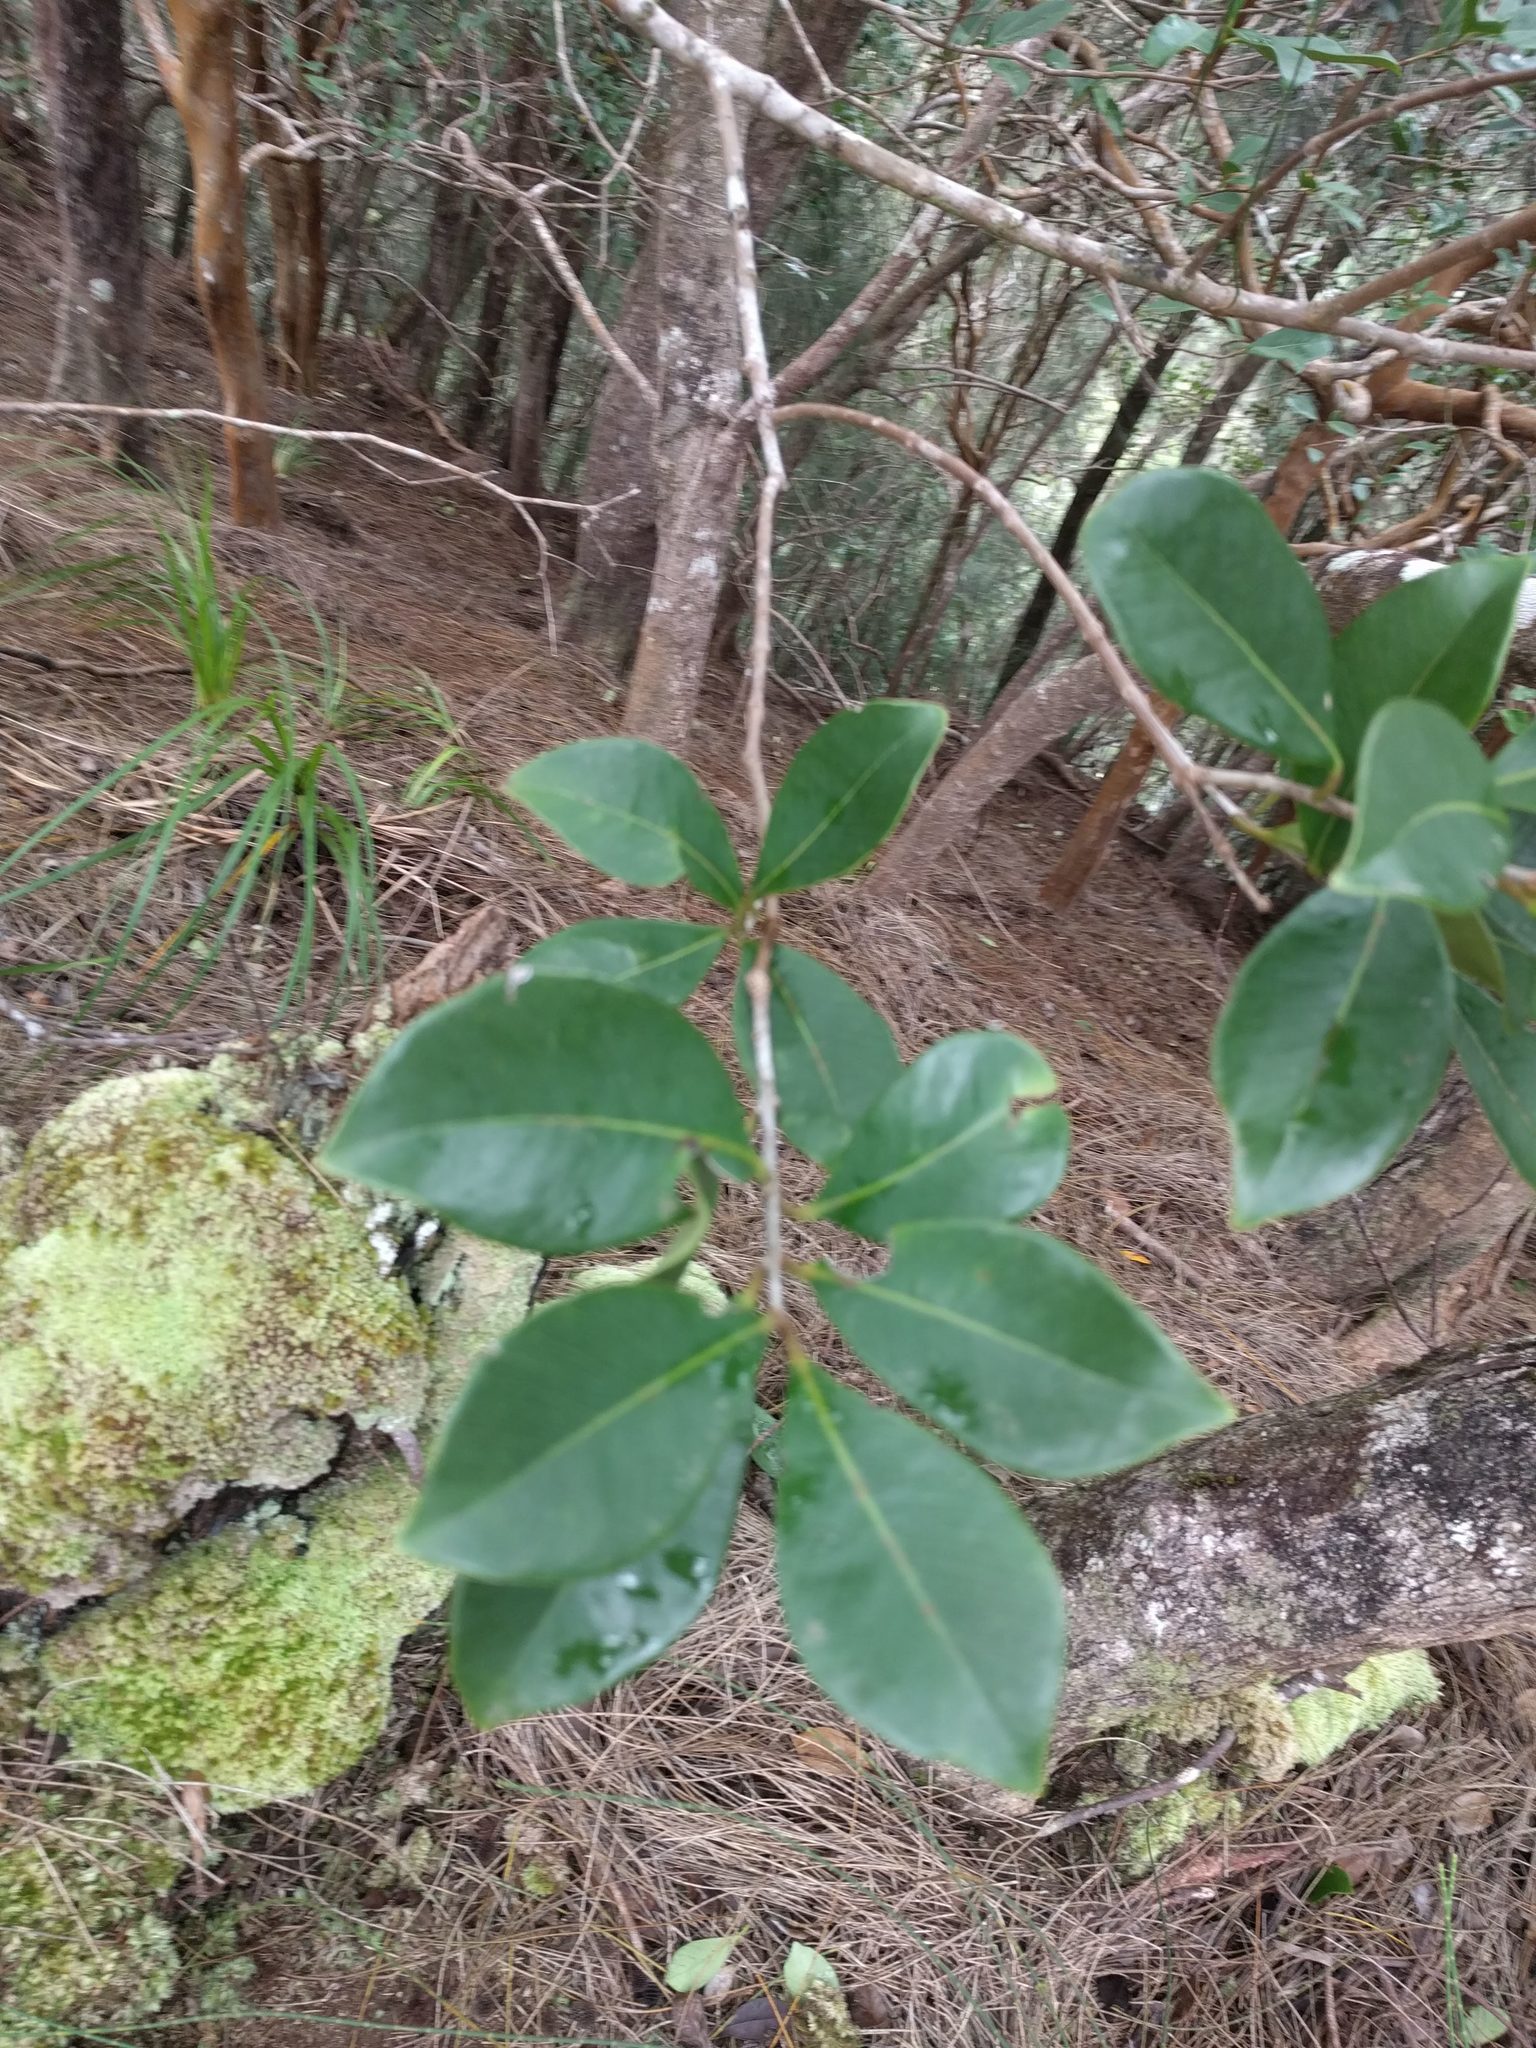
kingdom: Plantae
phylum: Tracheophyta
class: Magnoliopsida
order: Myrtales
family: Myrtaceae
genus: Psidium
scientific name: Psidium cattleianum
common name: Strawberry guava
